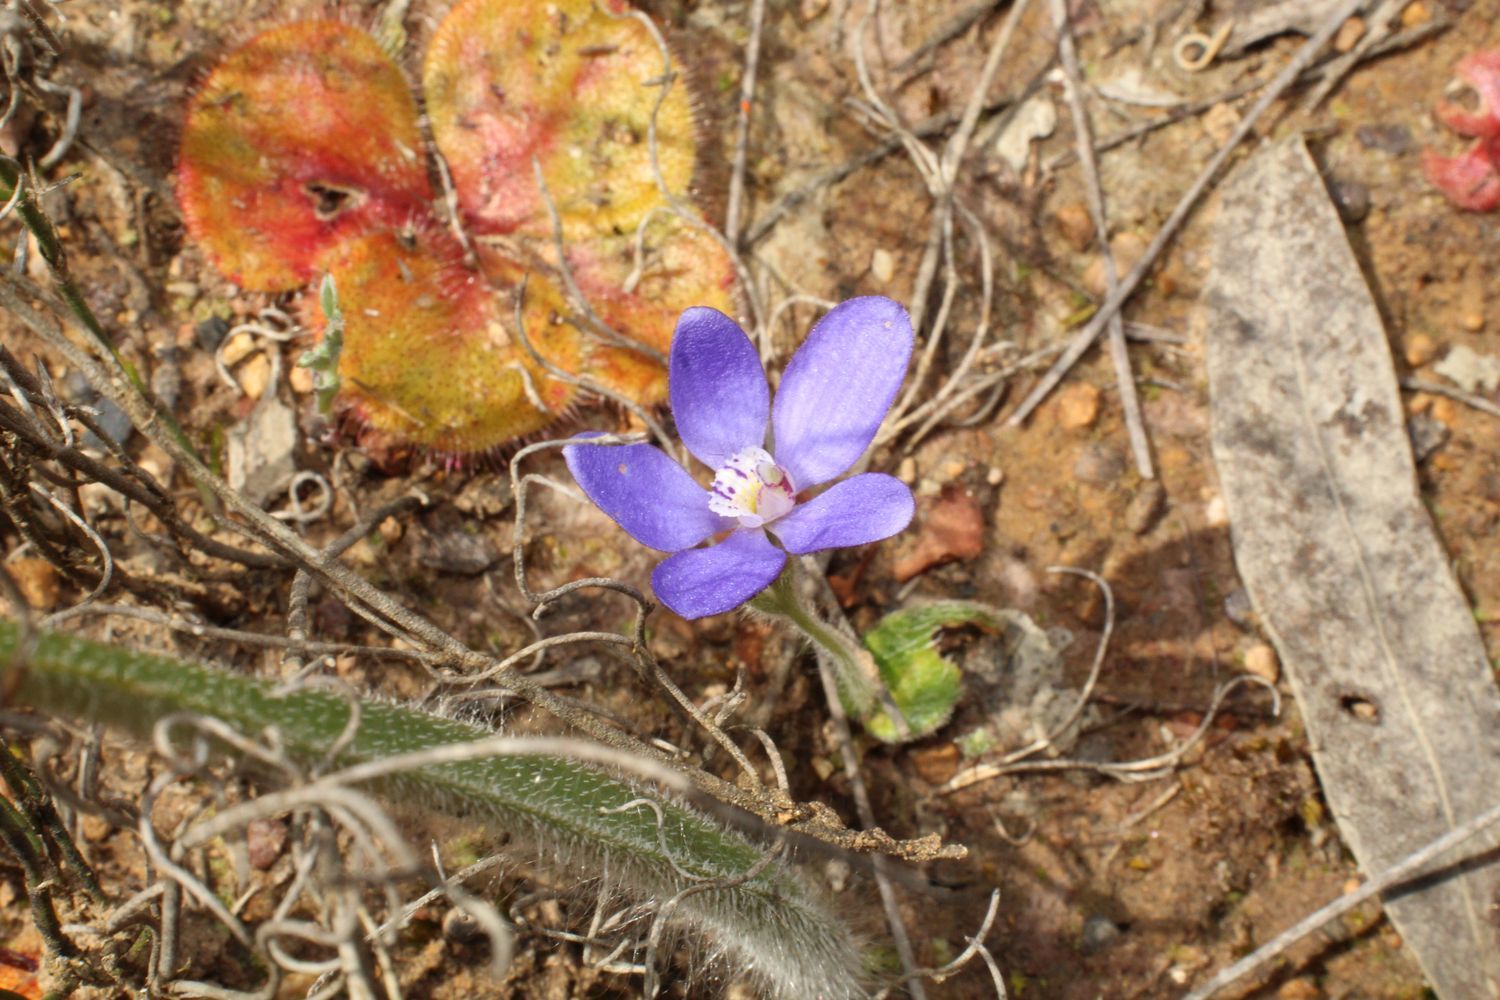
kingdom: Plantae
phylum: Tracheophyta
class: Liliopsida
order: Asparagales
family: Orchidaceae
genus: Caladenia
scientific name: Caladenia gemmata
